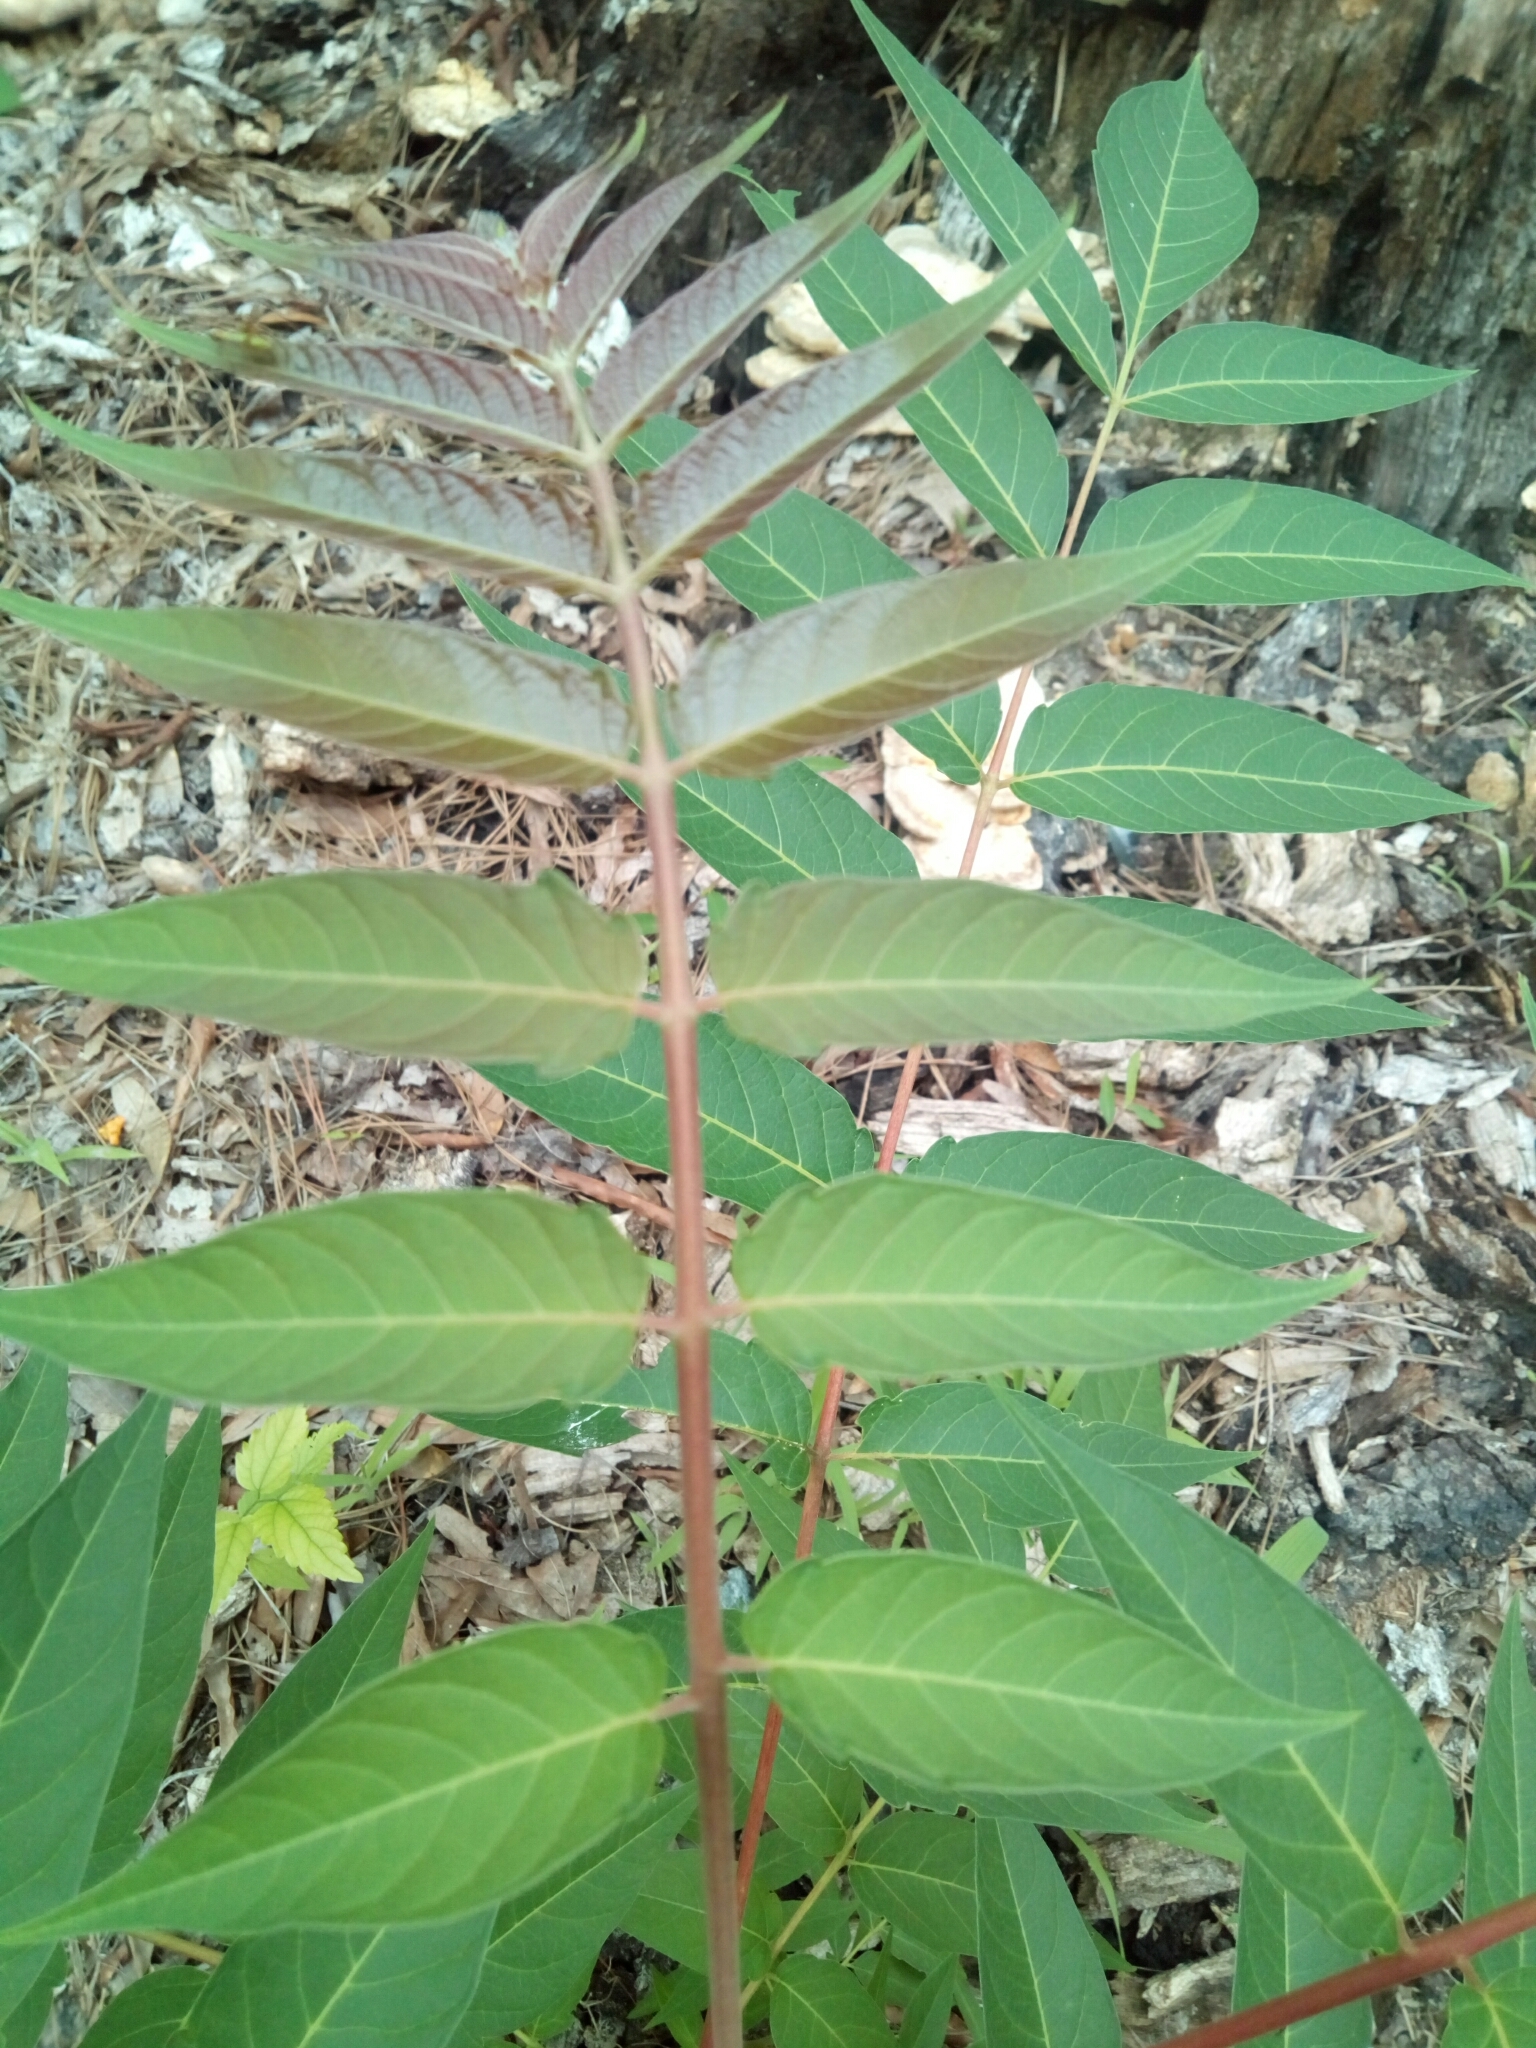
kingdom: Plantae
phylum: Tracheophyta
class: Magnoliopsida
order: Sapindales
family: Simaroubaceae
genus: Ailanthus
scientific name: Ailanthus altissima
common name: Tree-of-heaven
